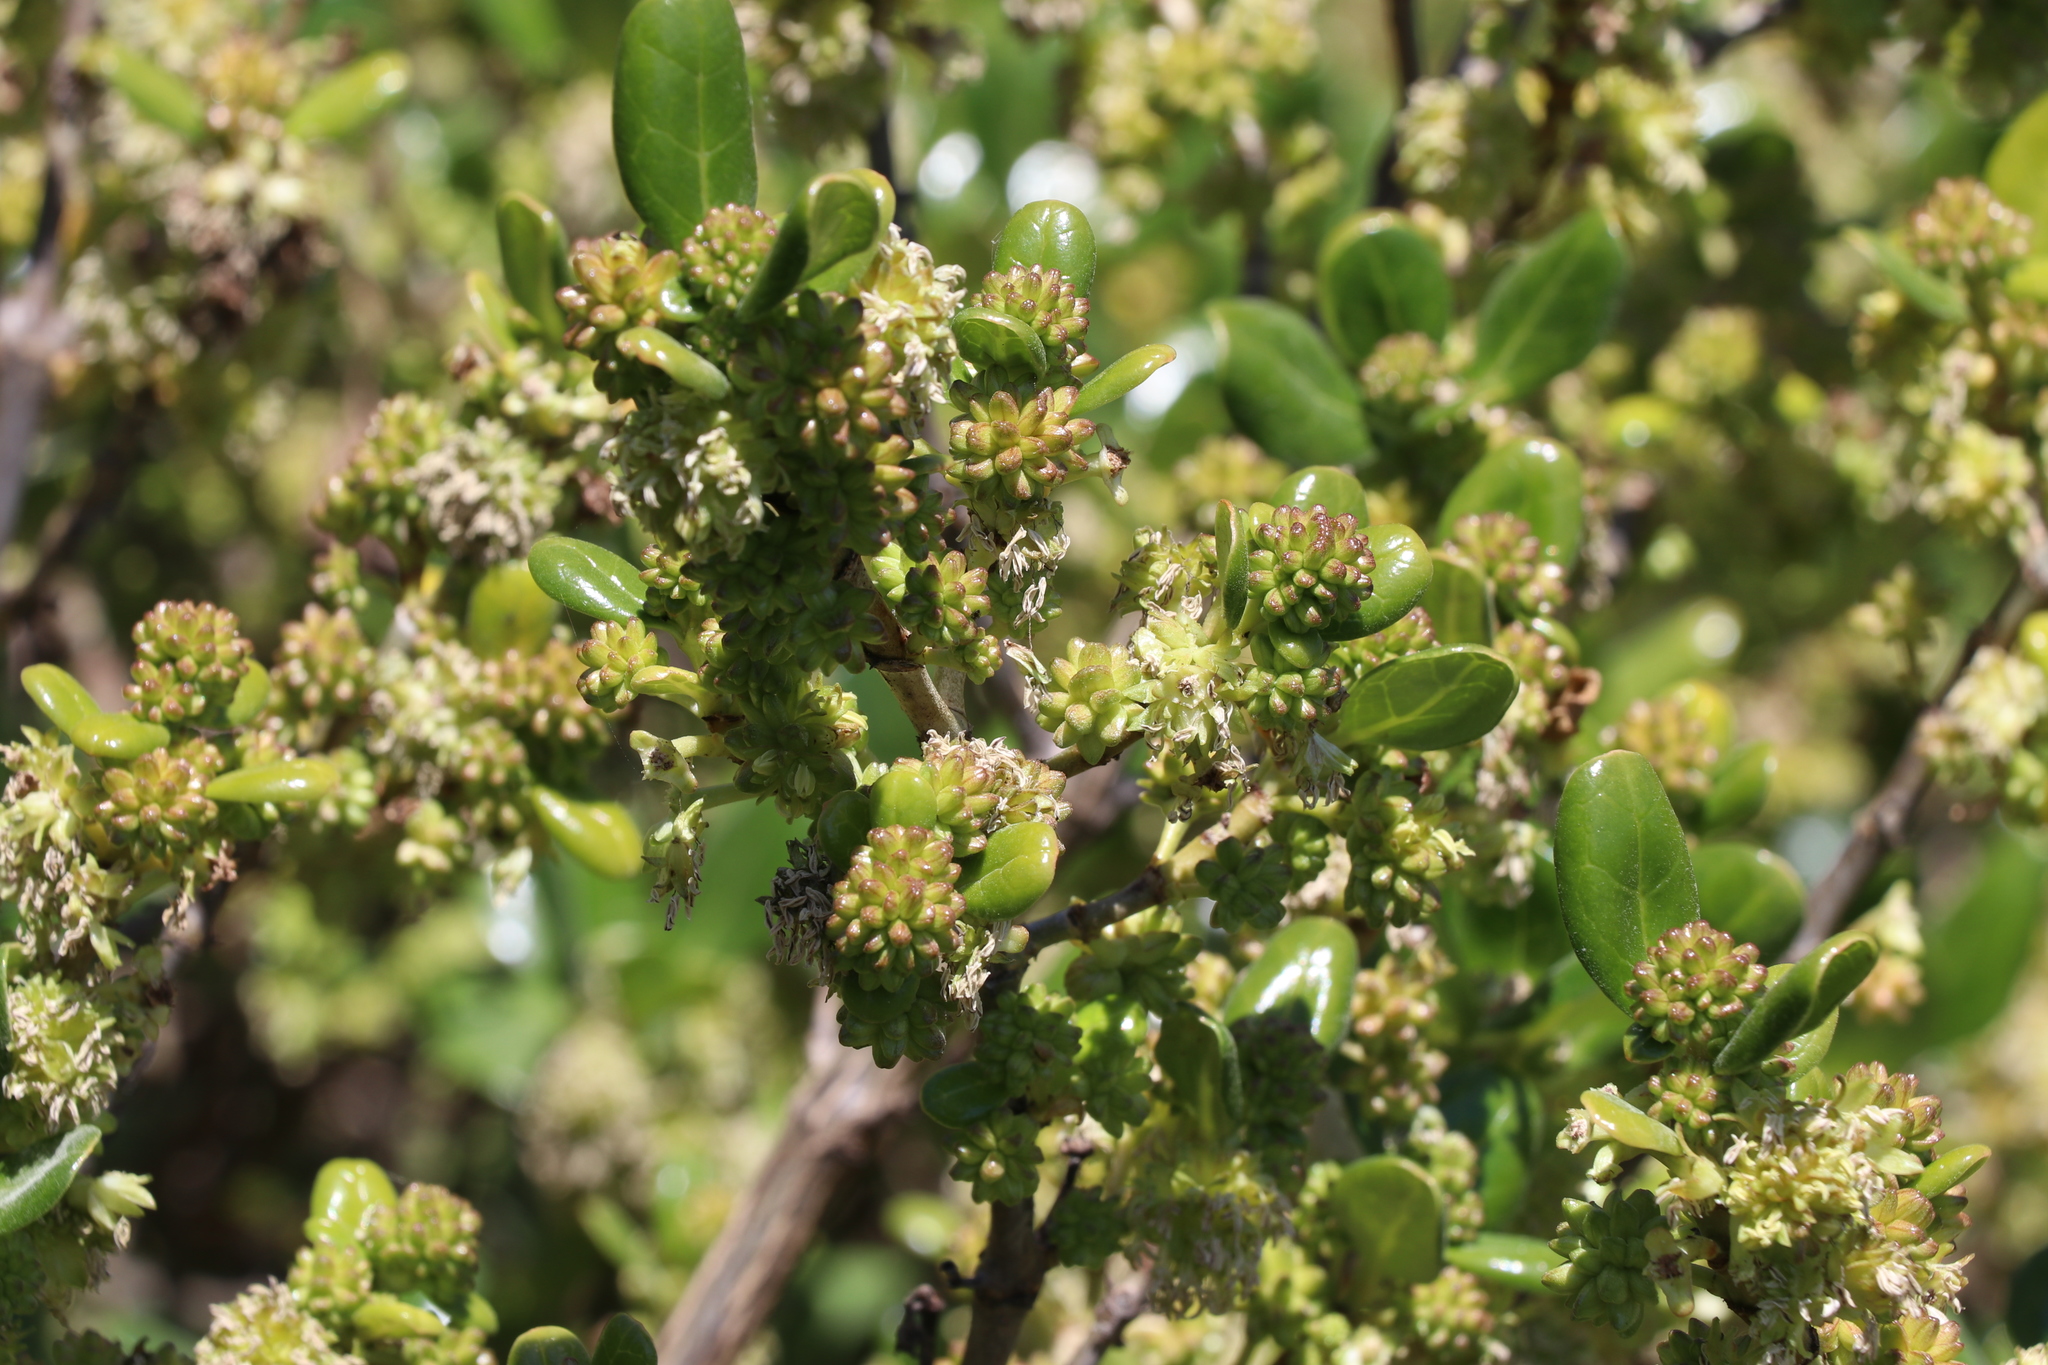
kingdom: Plantae
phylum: Tracheophyta
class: Magnoliopsida
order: Gentianales
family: Rubiaceae
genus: Coprosma
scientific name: Coprosma repens
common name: Tree bedstraw
